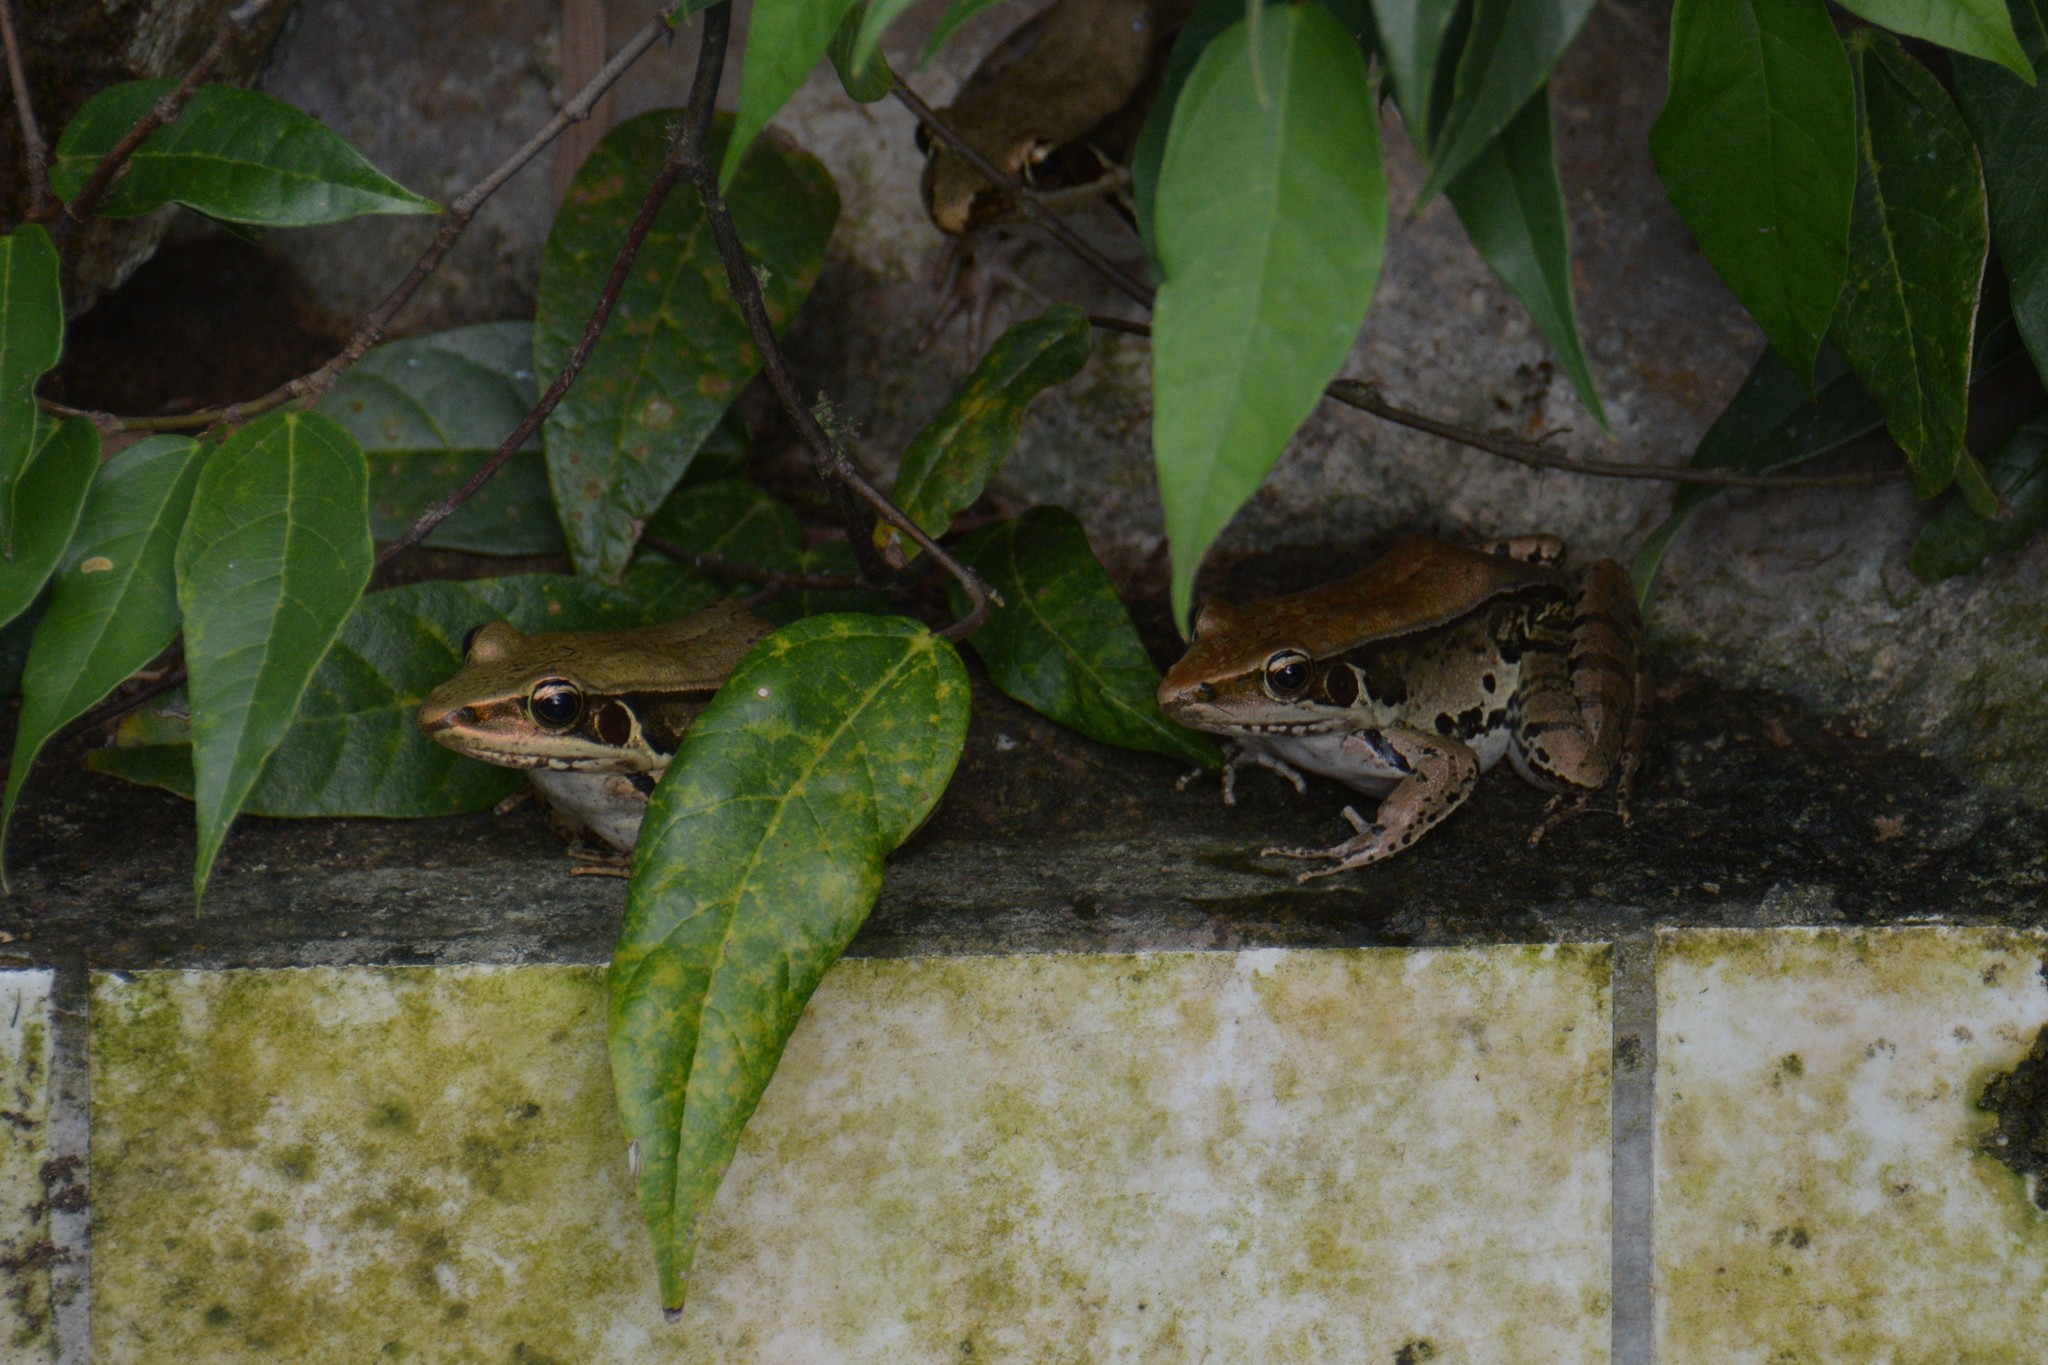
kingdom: Animalia
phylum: Chordata
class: Amphibia
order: Anura
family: Ranidae
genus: Sylvirana
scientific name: Sylvirana guentheri
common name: Guenther's amoy frog
